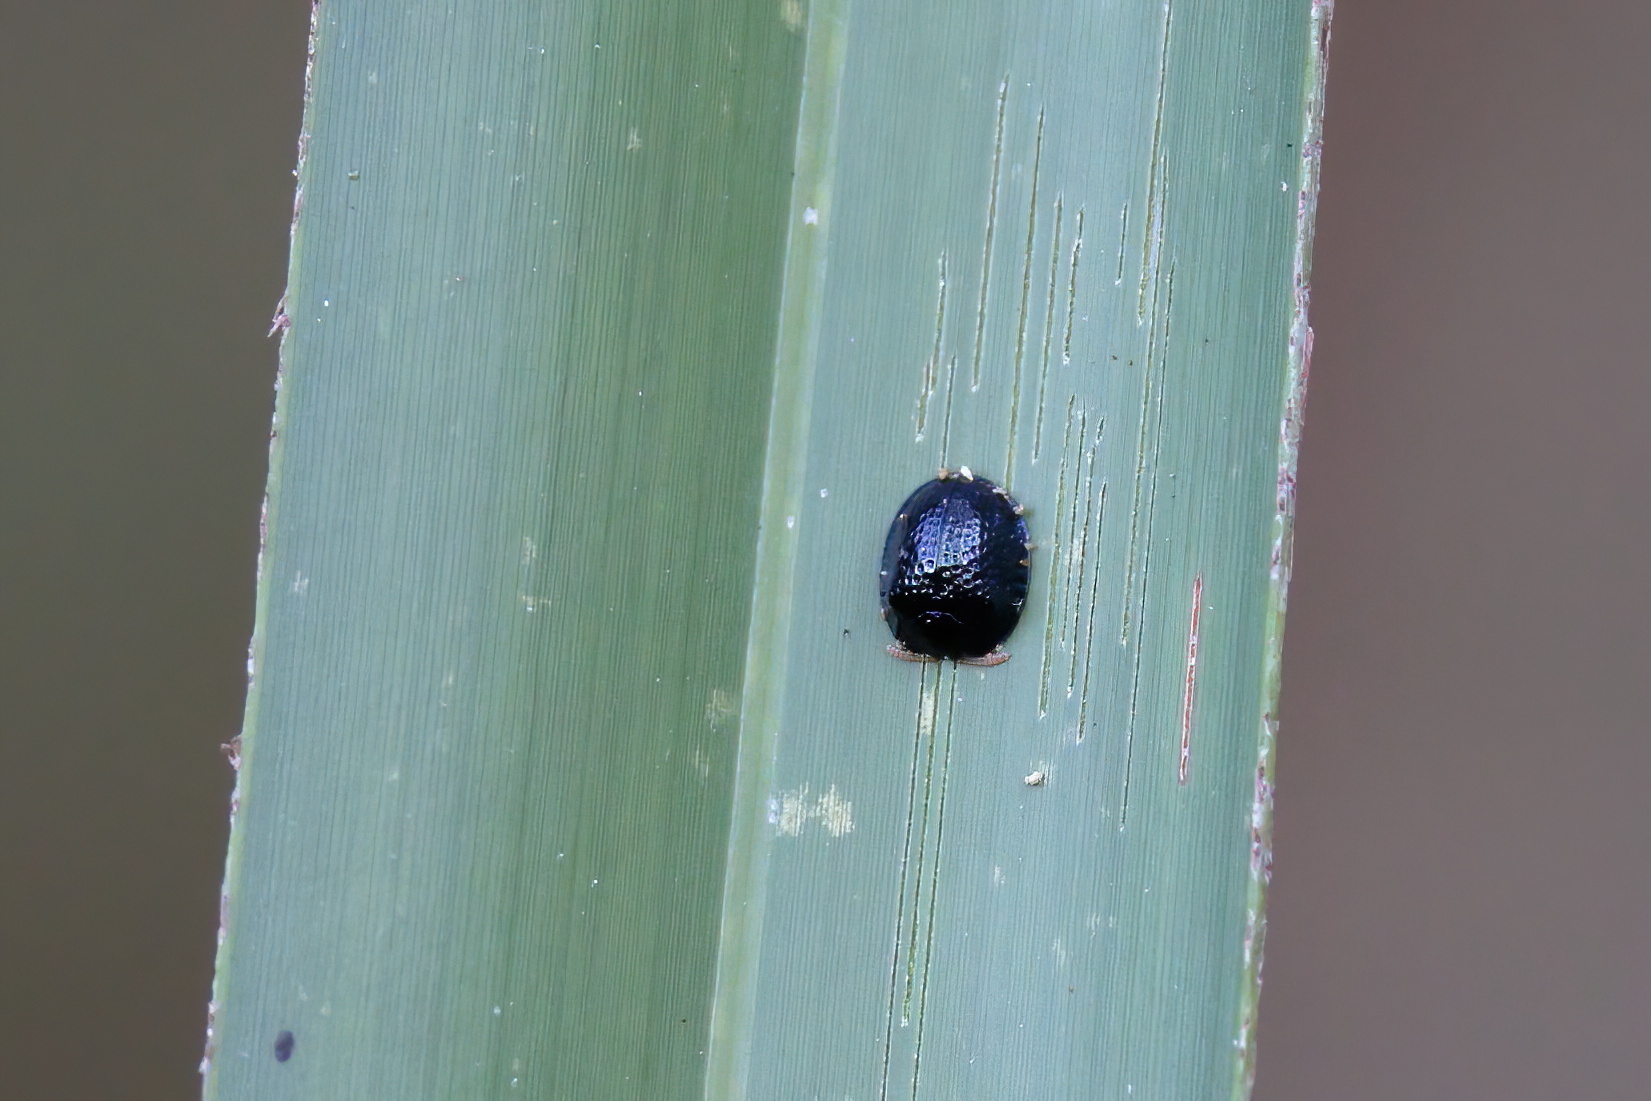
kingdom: Animalia
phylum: Arthropoda
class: Insecta
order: Coleoptera
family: Chrysomelidae
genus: Hemisphaerota
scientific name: Hemisphaerota cyanea
